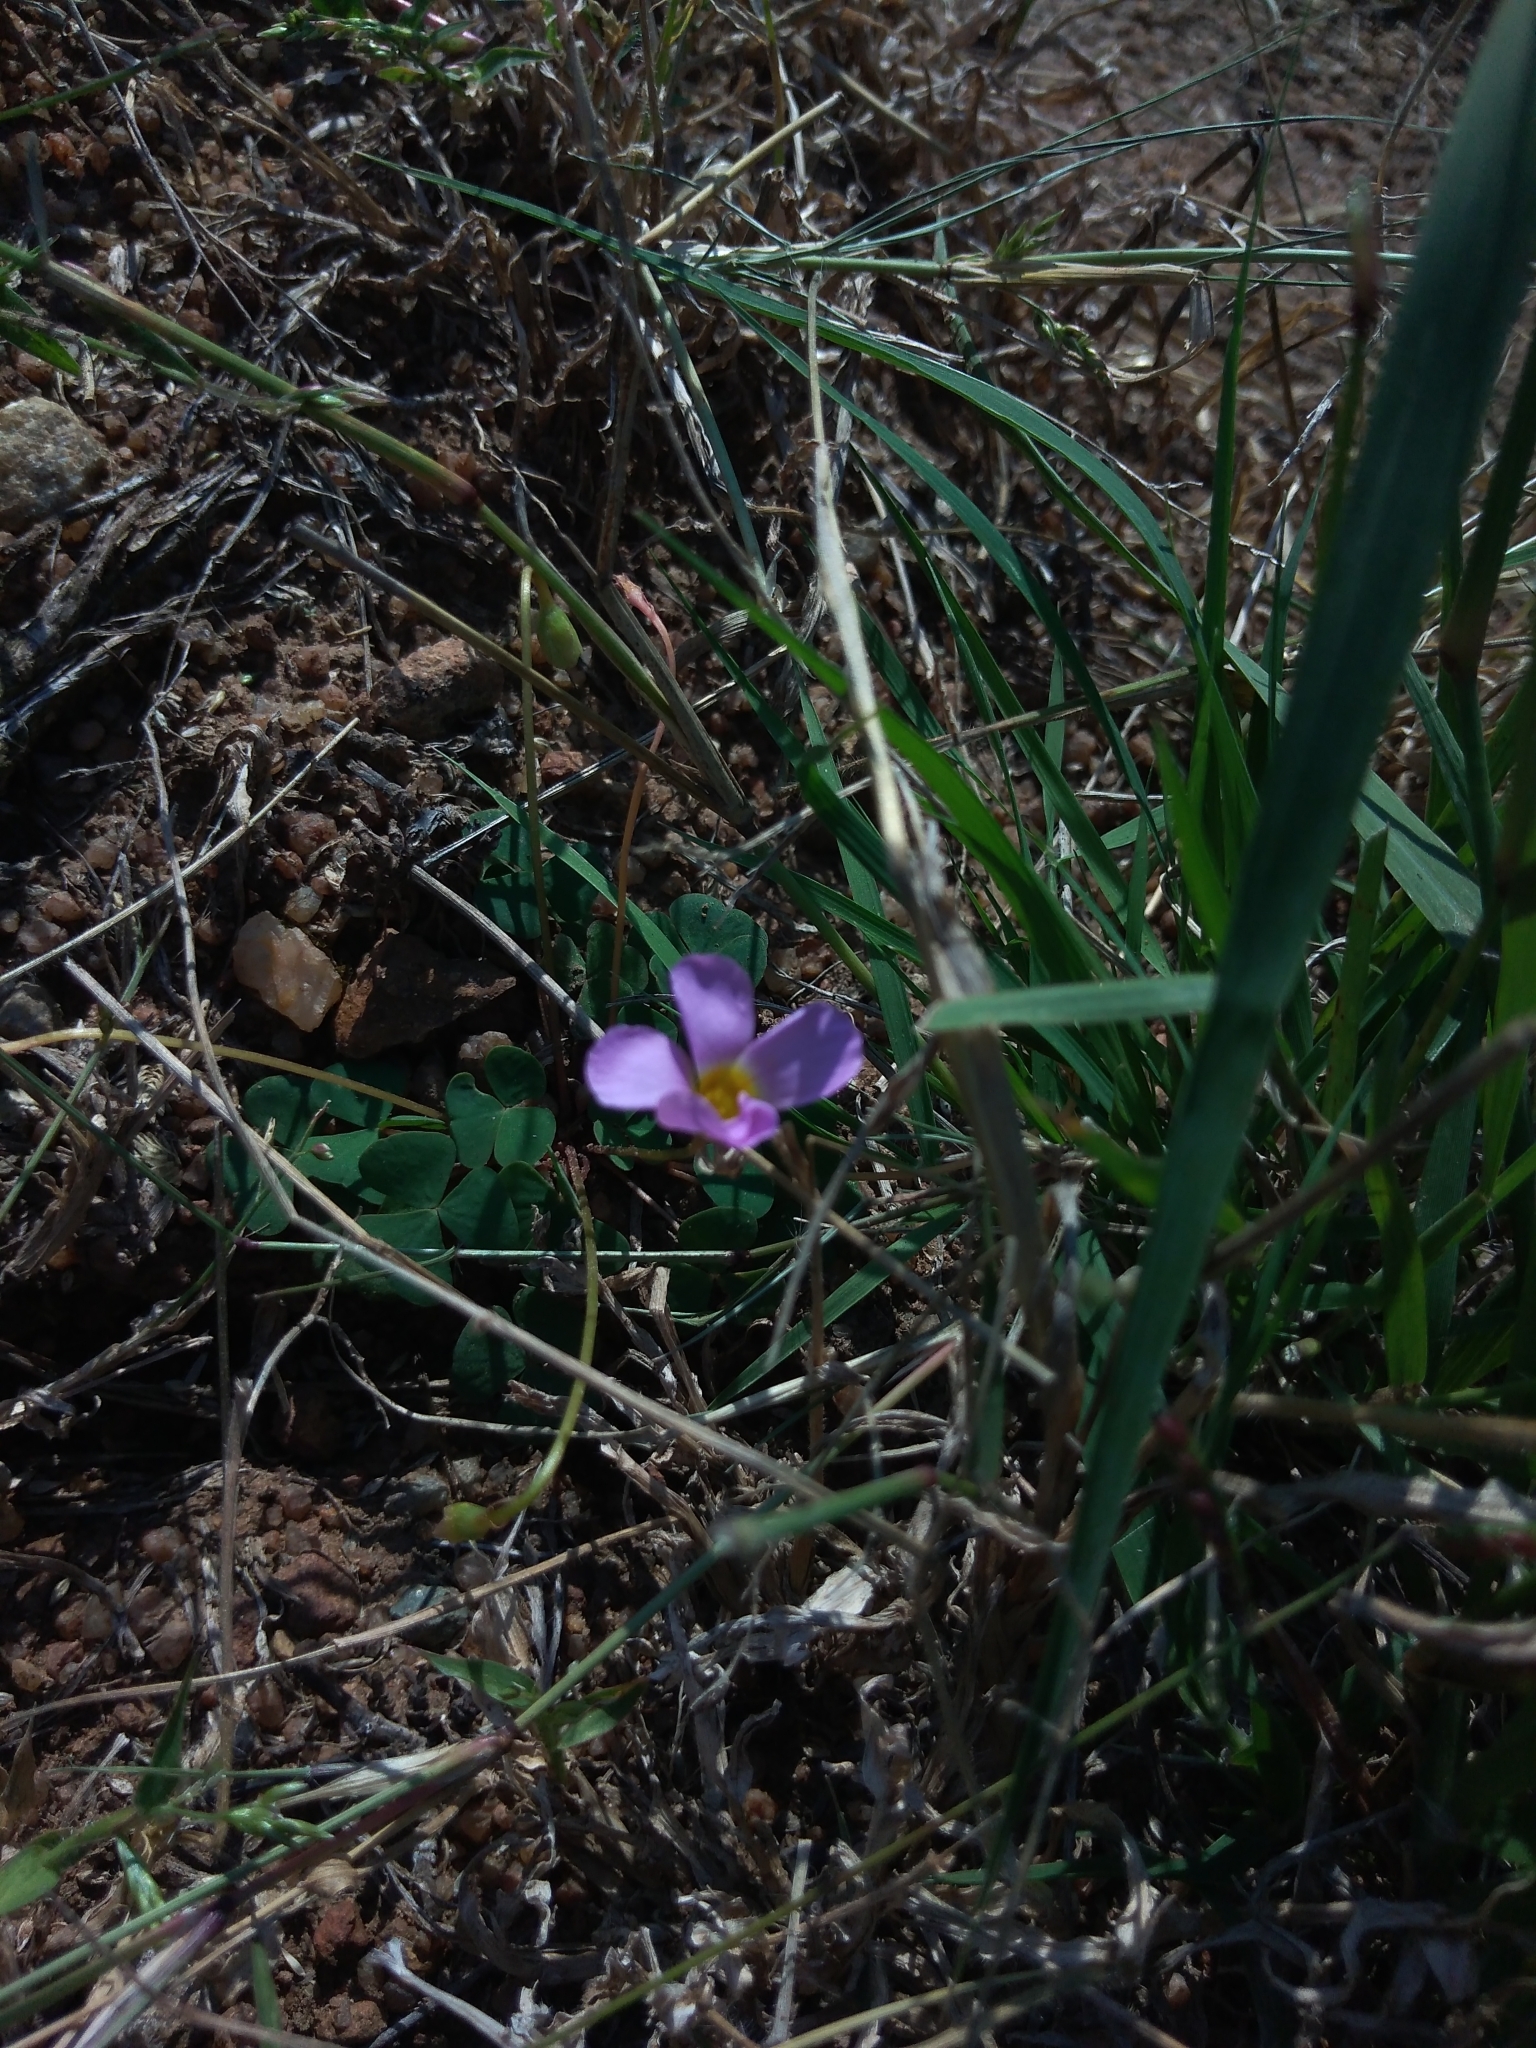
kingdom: Plantae
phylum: Tracheophyta
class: Magnoliopsida
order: Oxalidales
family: Oxalidaceae
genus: Oxalis
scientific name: Oxalis obliquifolia
